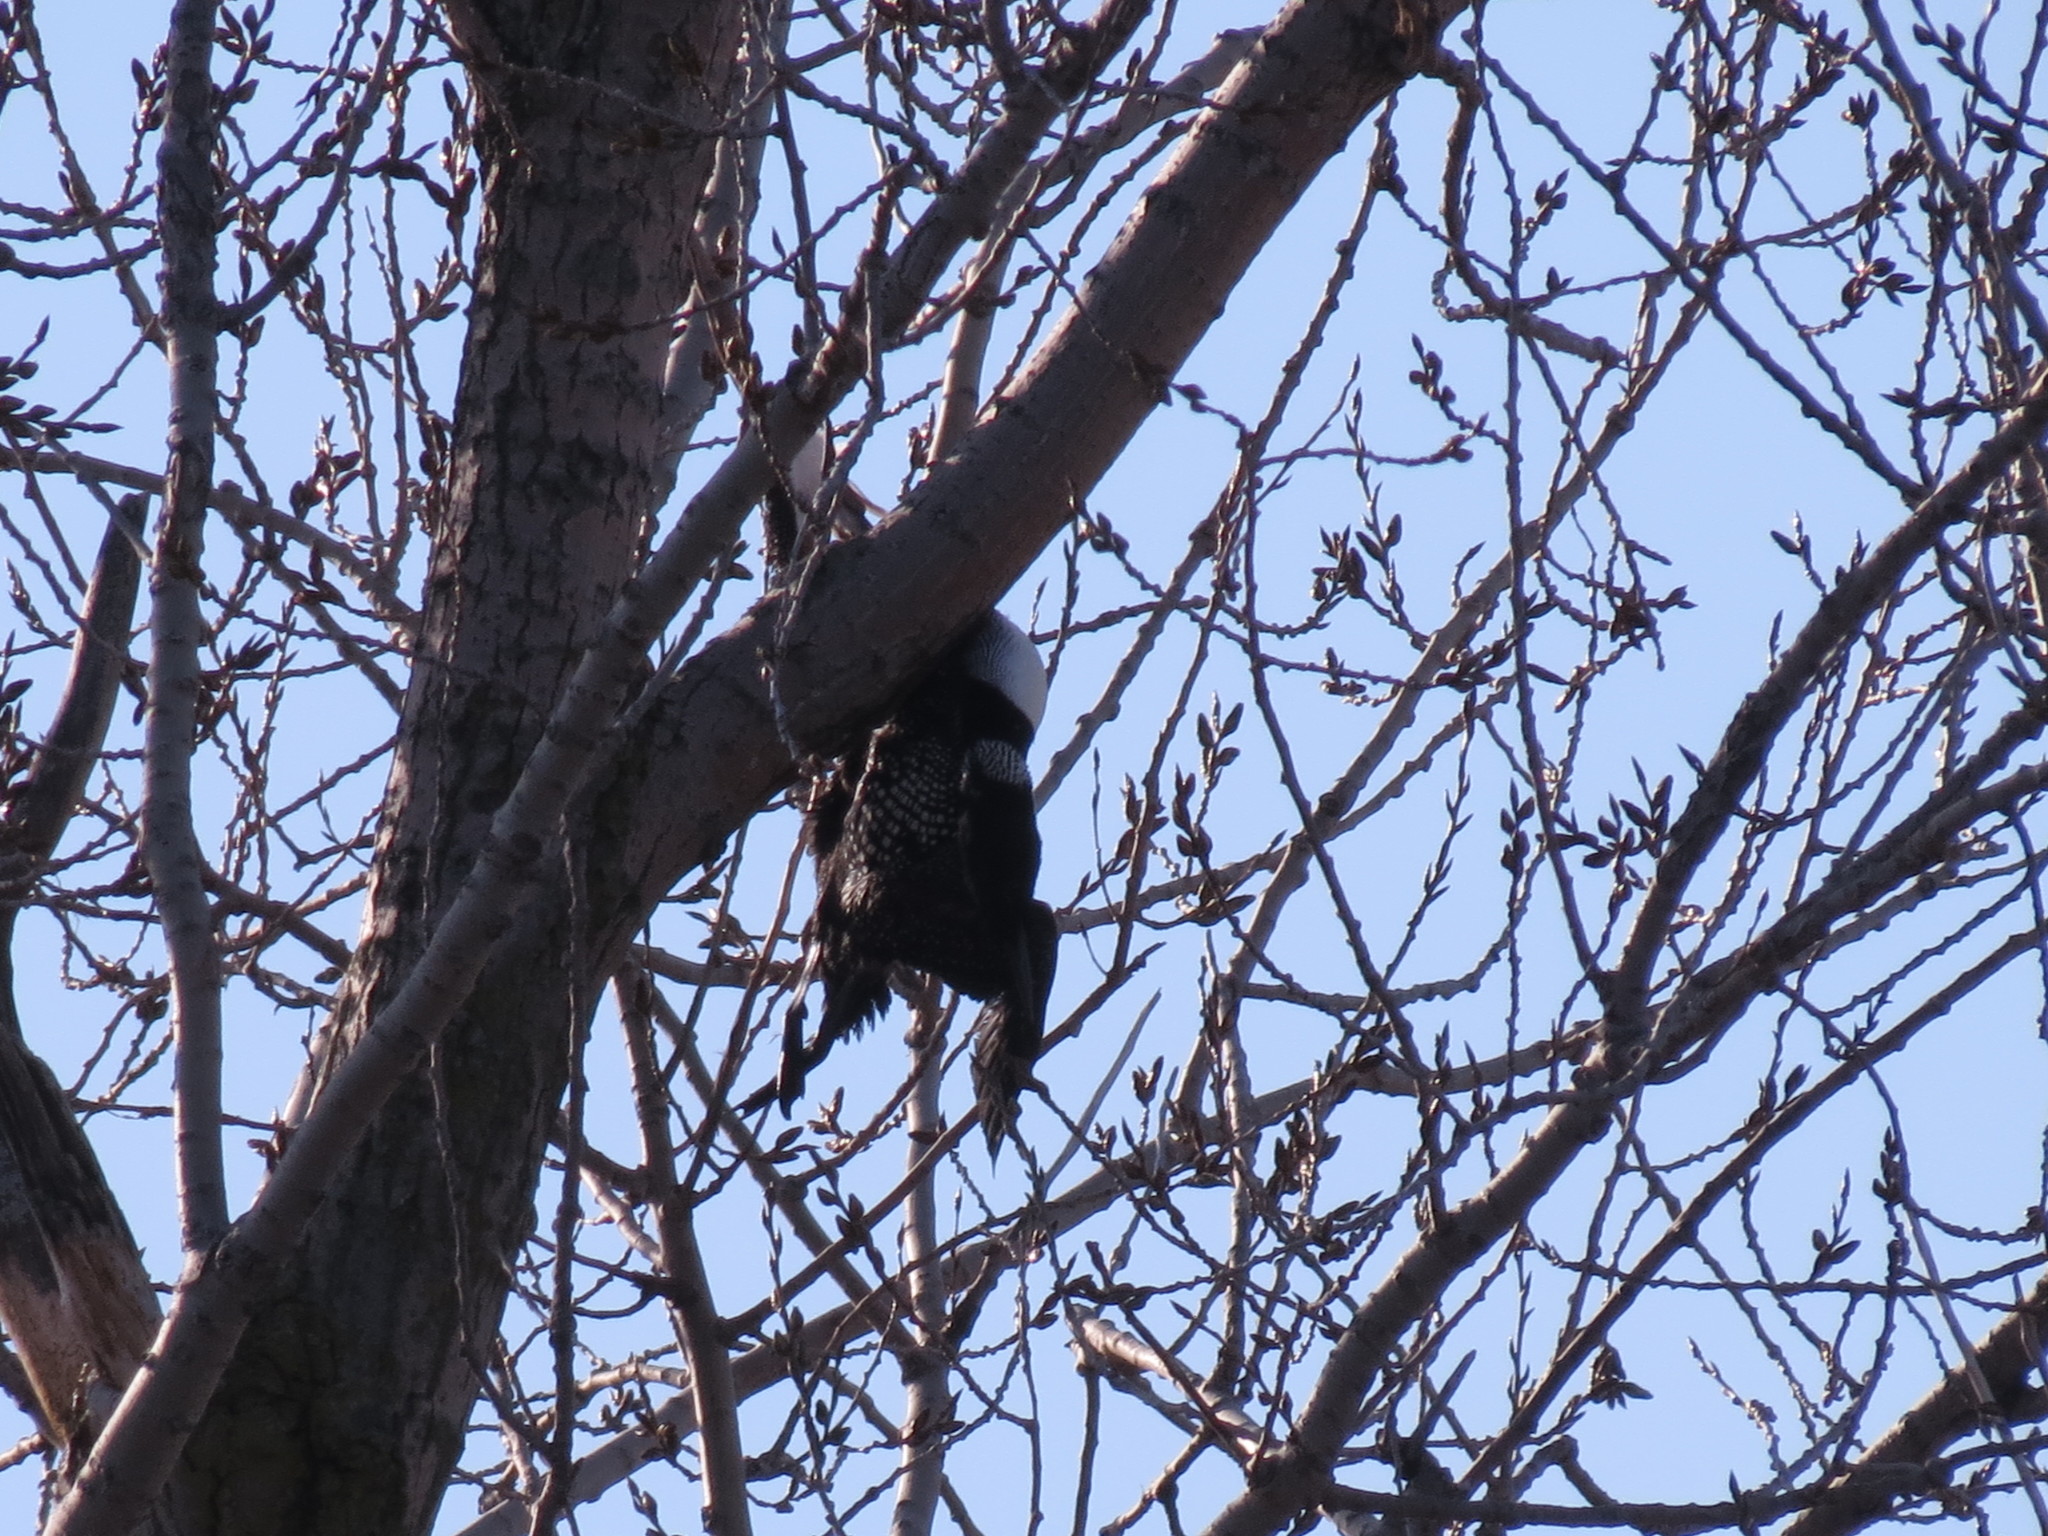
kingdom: Animalia
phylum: Chordata
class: Aves
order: Gaviiformes
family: Gaviidae
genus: Gavia
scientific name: Gavia immer
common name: Common loon
